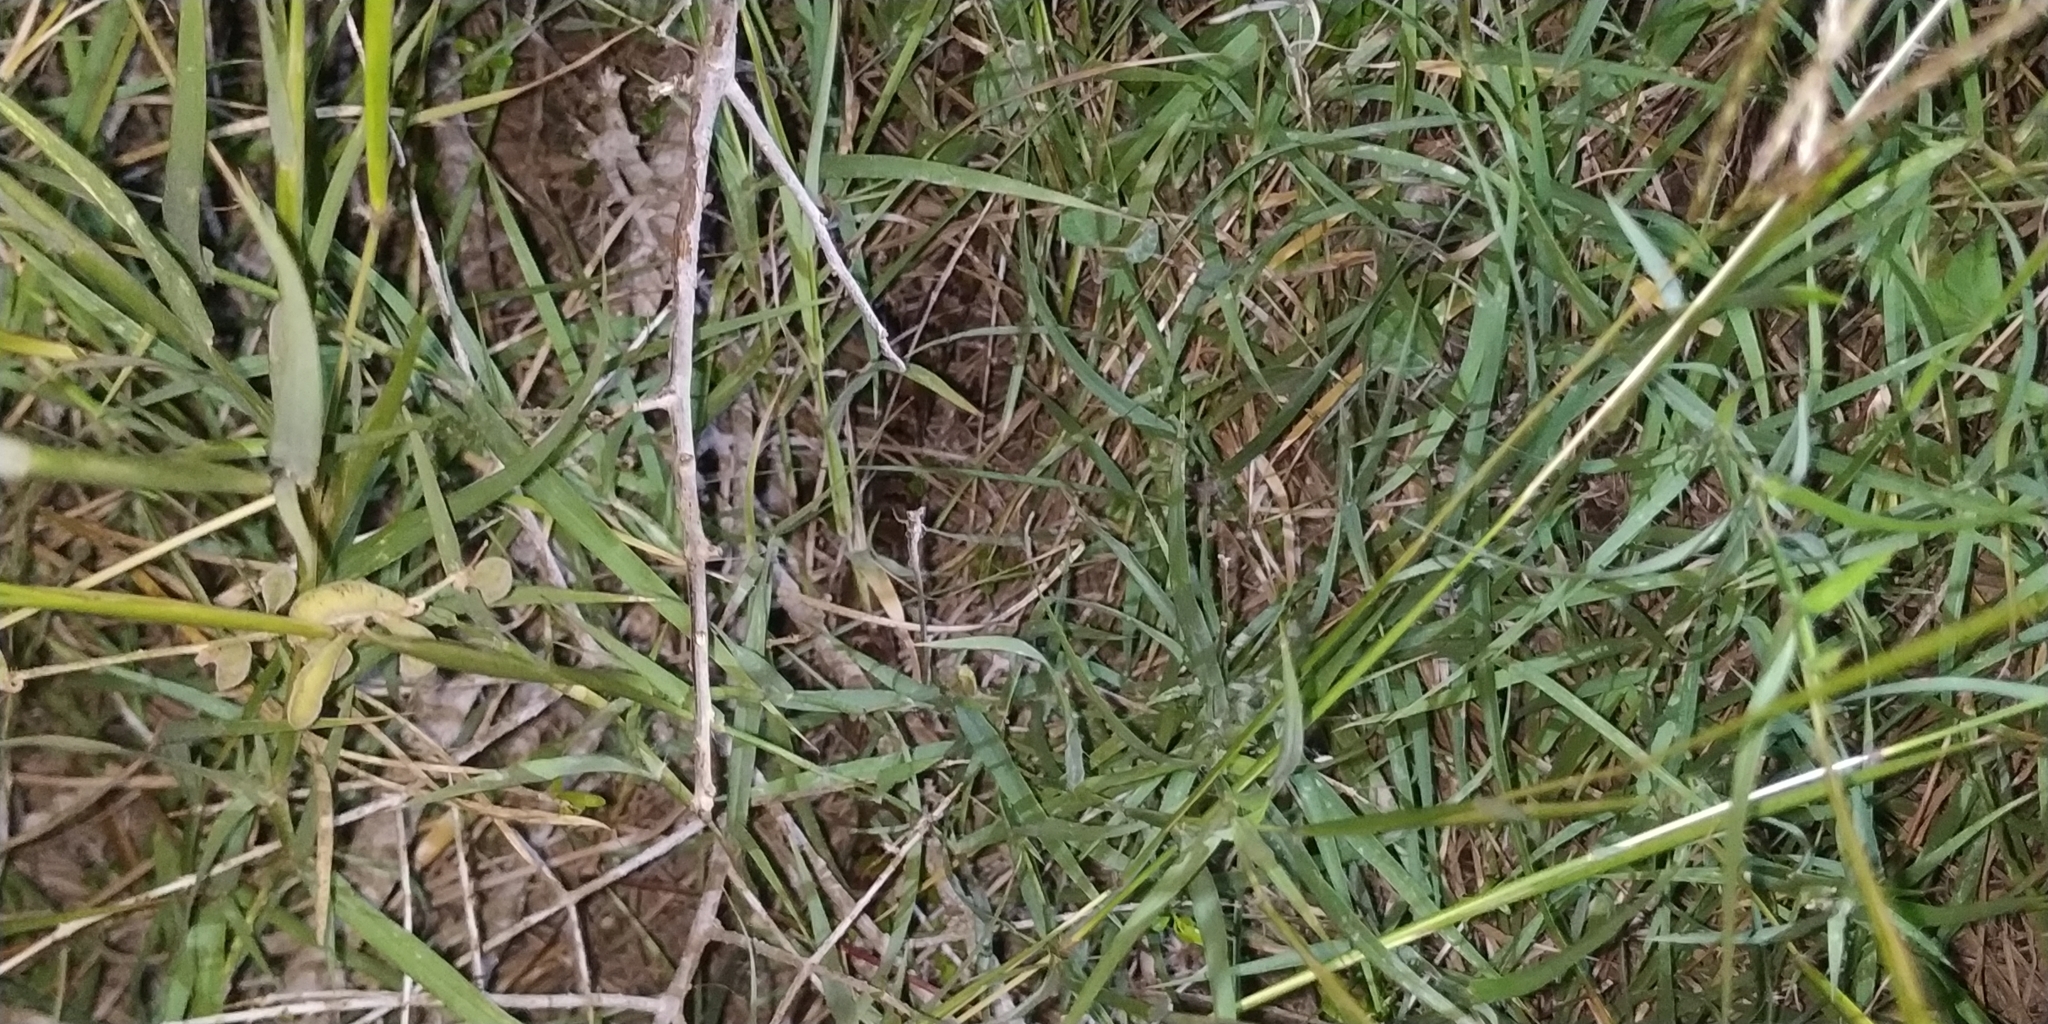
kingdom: Animalia
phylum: Chordata
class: Squamata
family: Colubridae
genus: Trimorphodon
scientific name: Trimorphodon tau
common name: Mexican lyre snake
